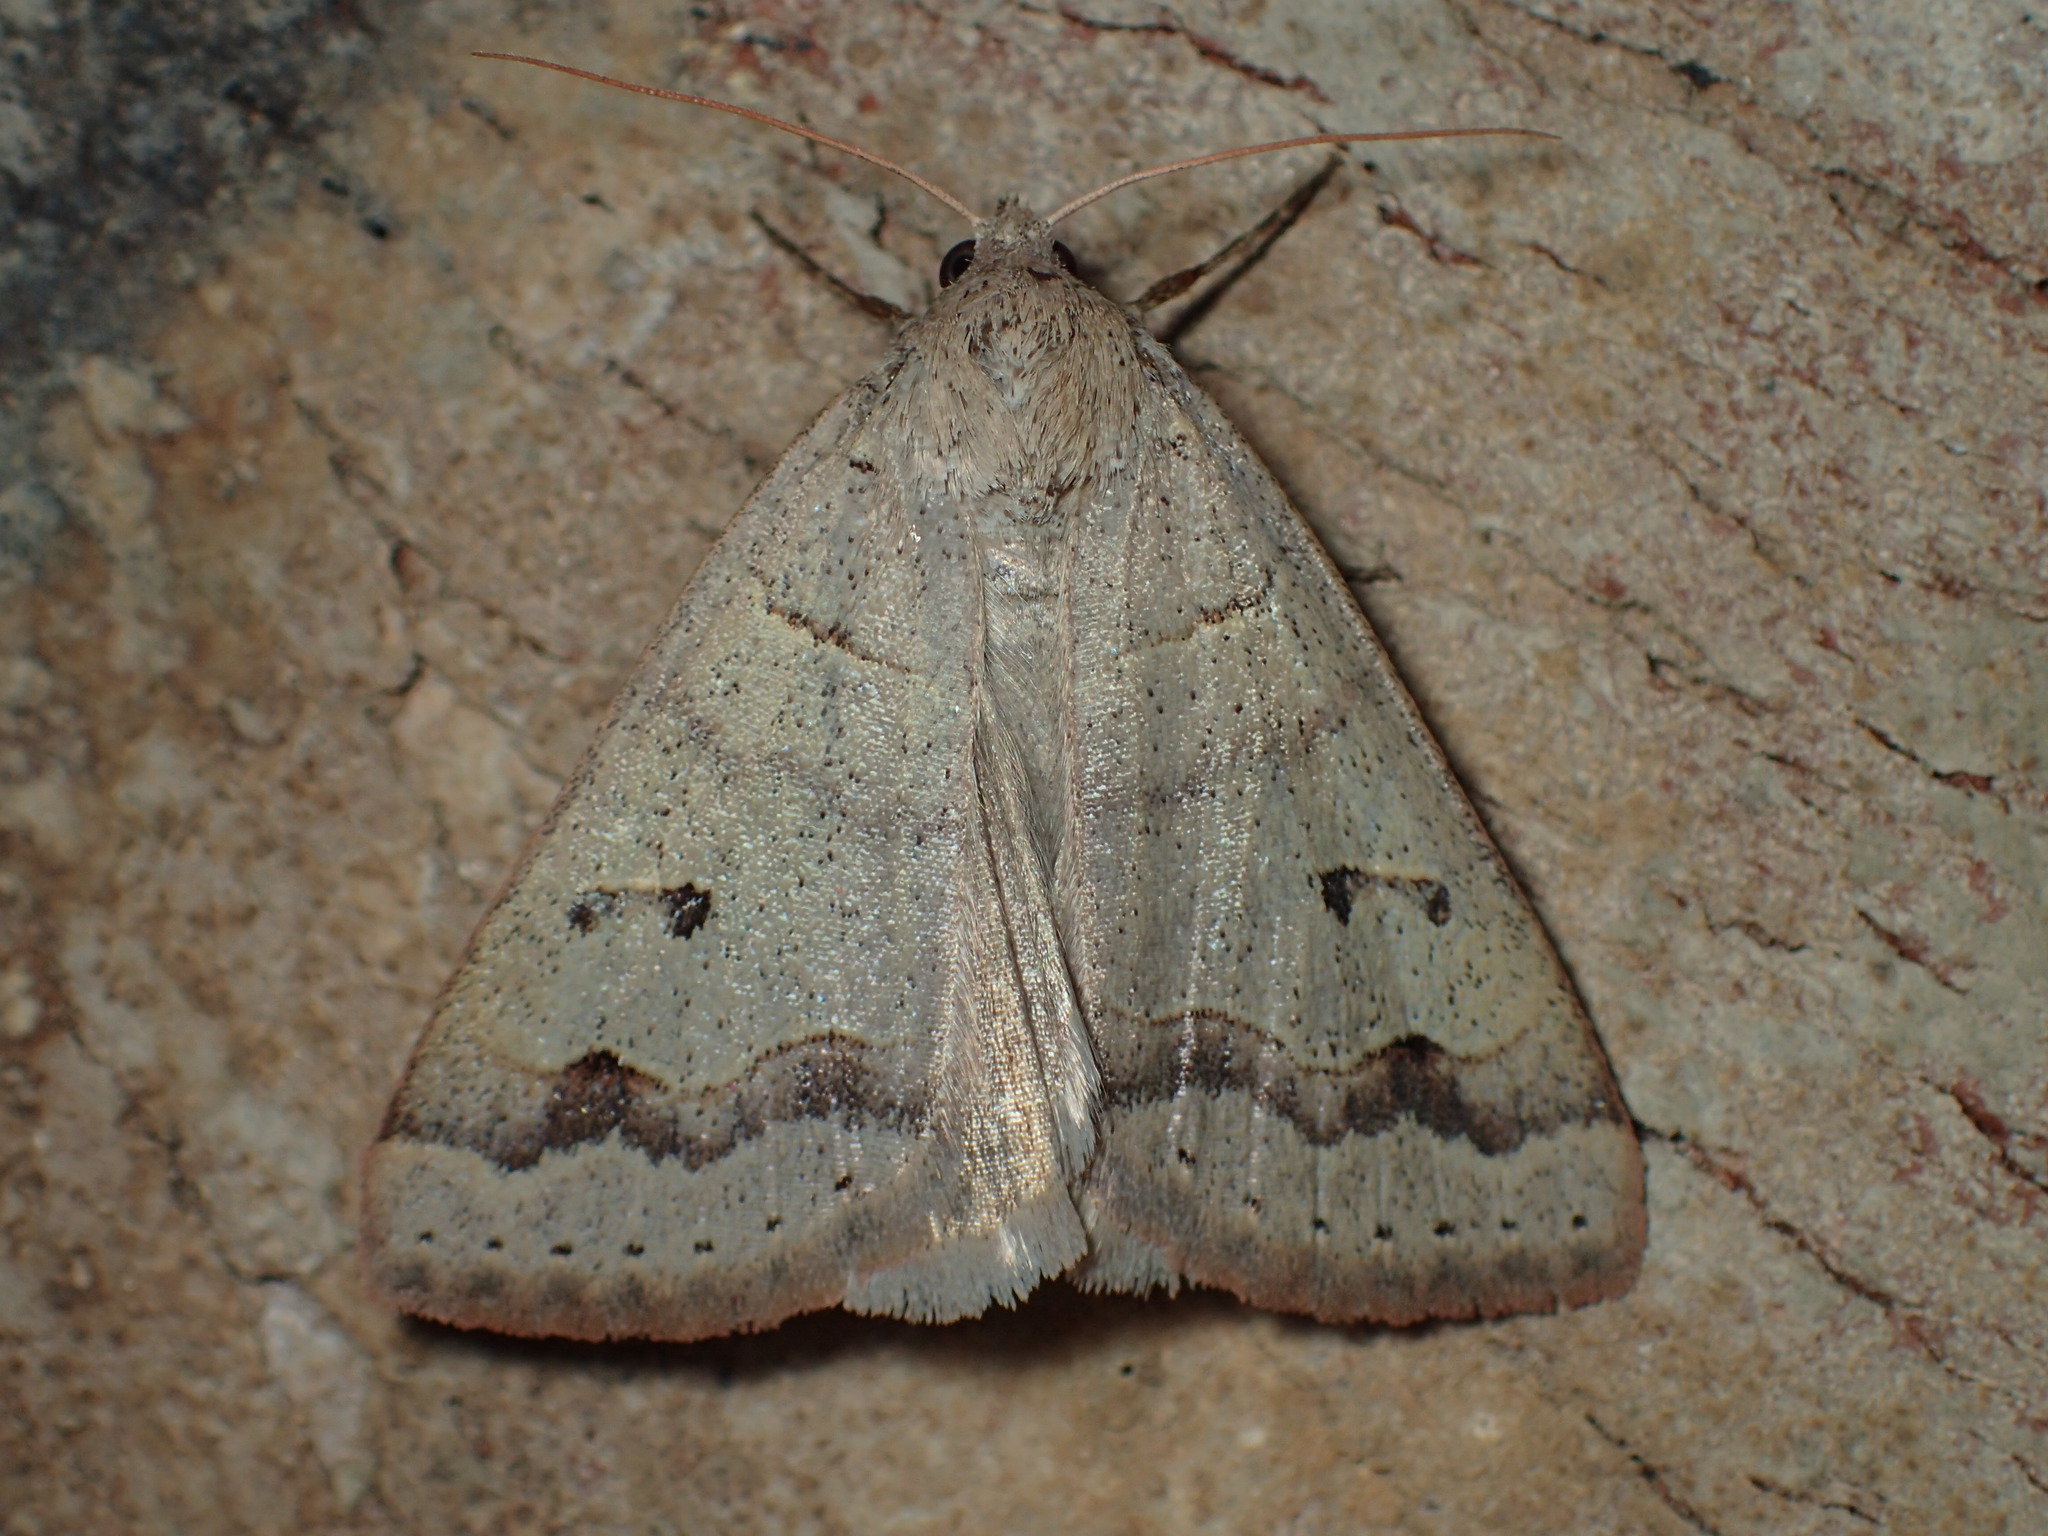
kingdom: Animalia
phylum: Arthropoda
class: Insecta
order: Lepidoptera
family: Erebidae
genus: Phoberia
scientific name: Phoberia atomaris
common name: Common oak moth
